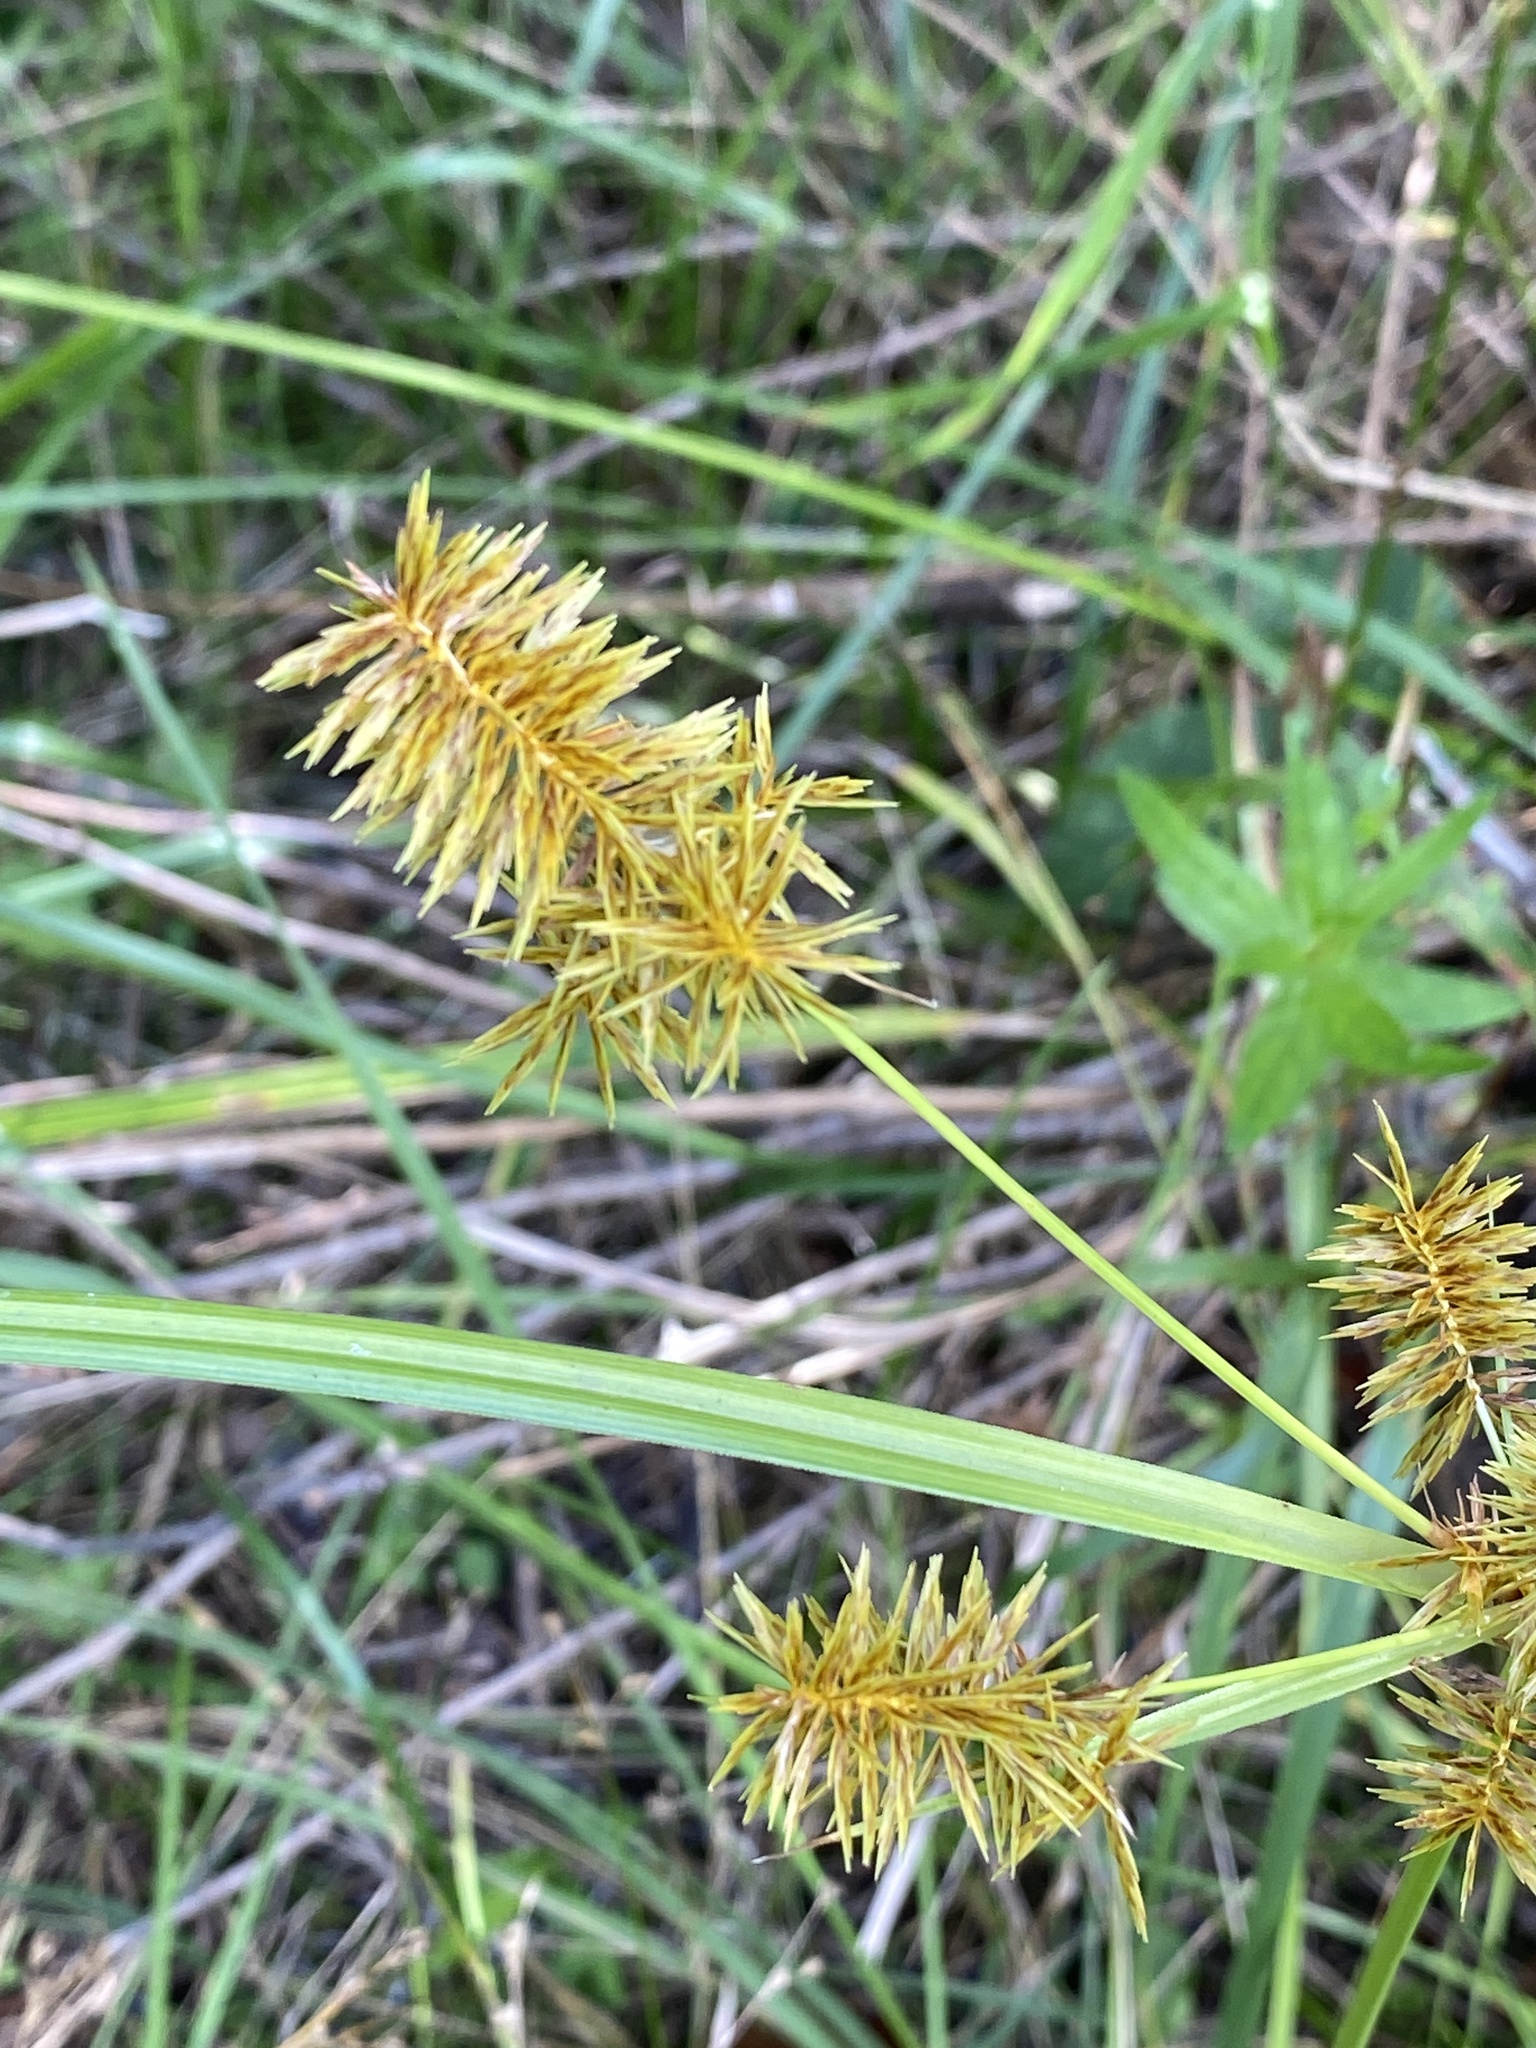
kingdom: Plantae
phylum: Tracheophyta
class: Liliopsida
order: Poales
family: Cyperaceae
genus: Cyperus
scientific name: Cyperus strigosus
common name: False nutsedge
